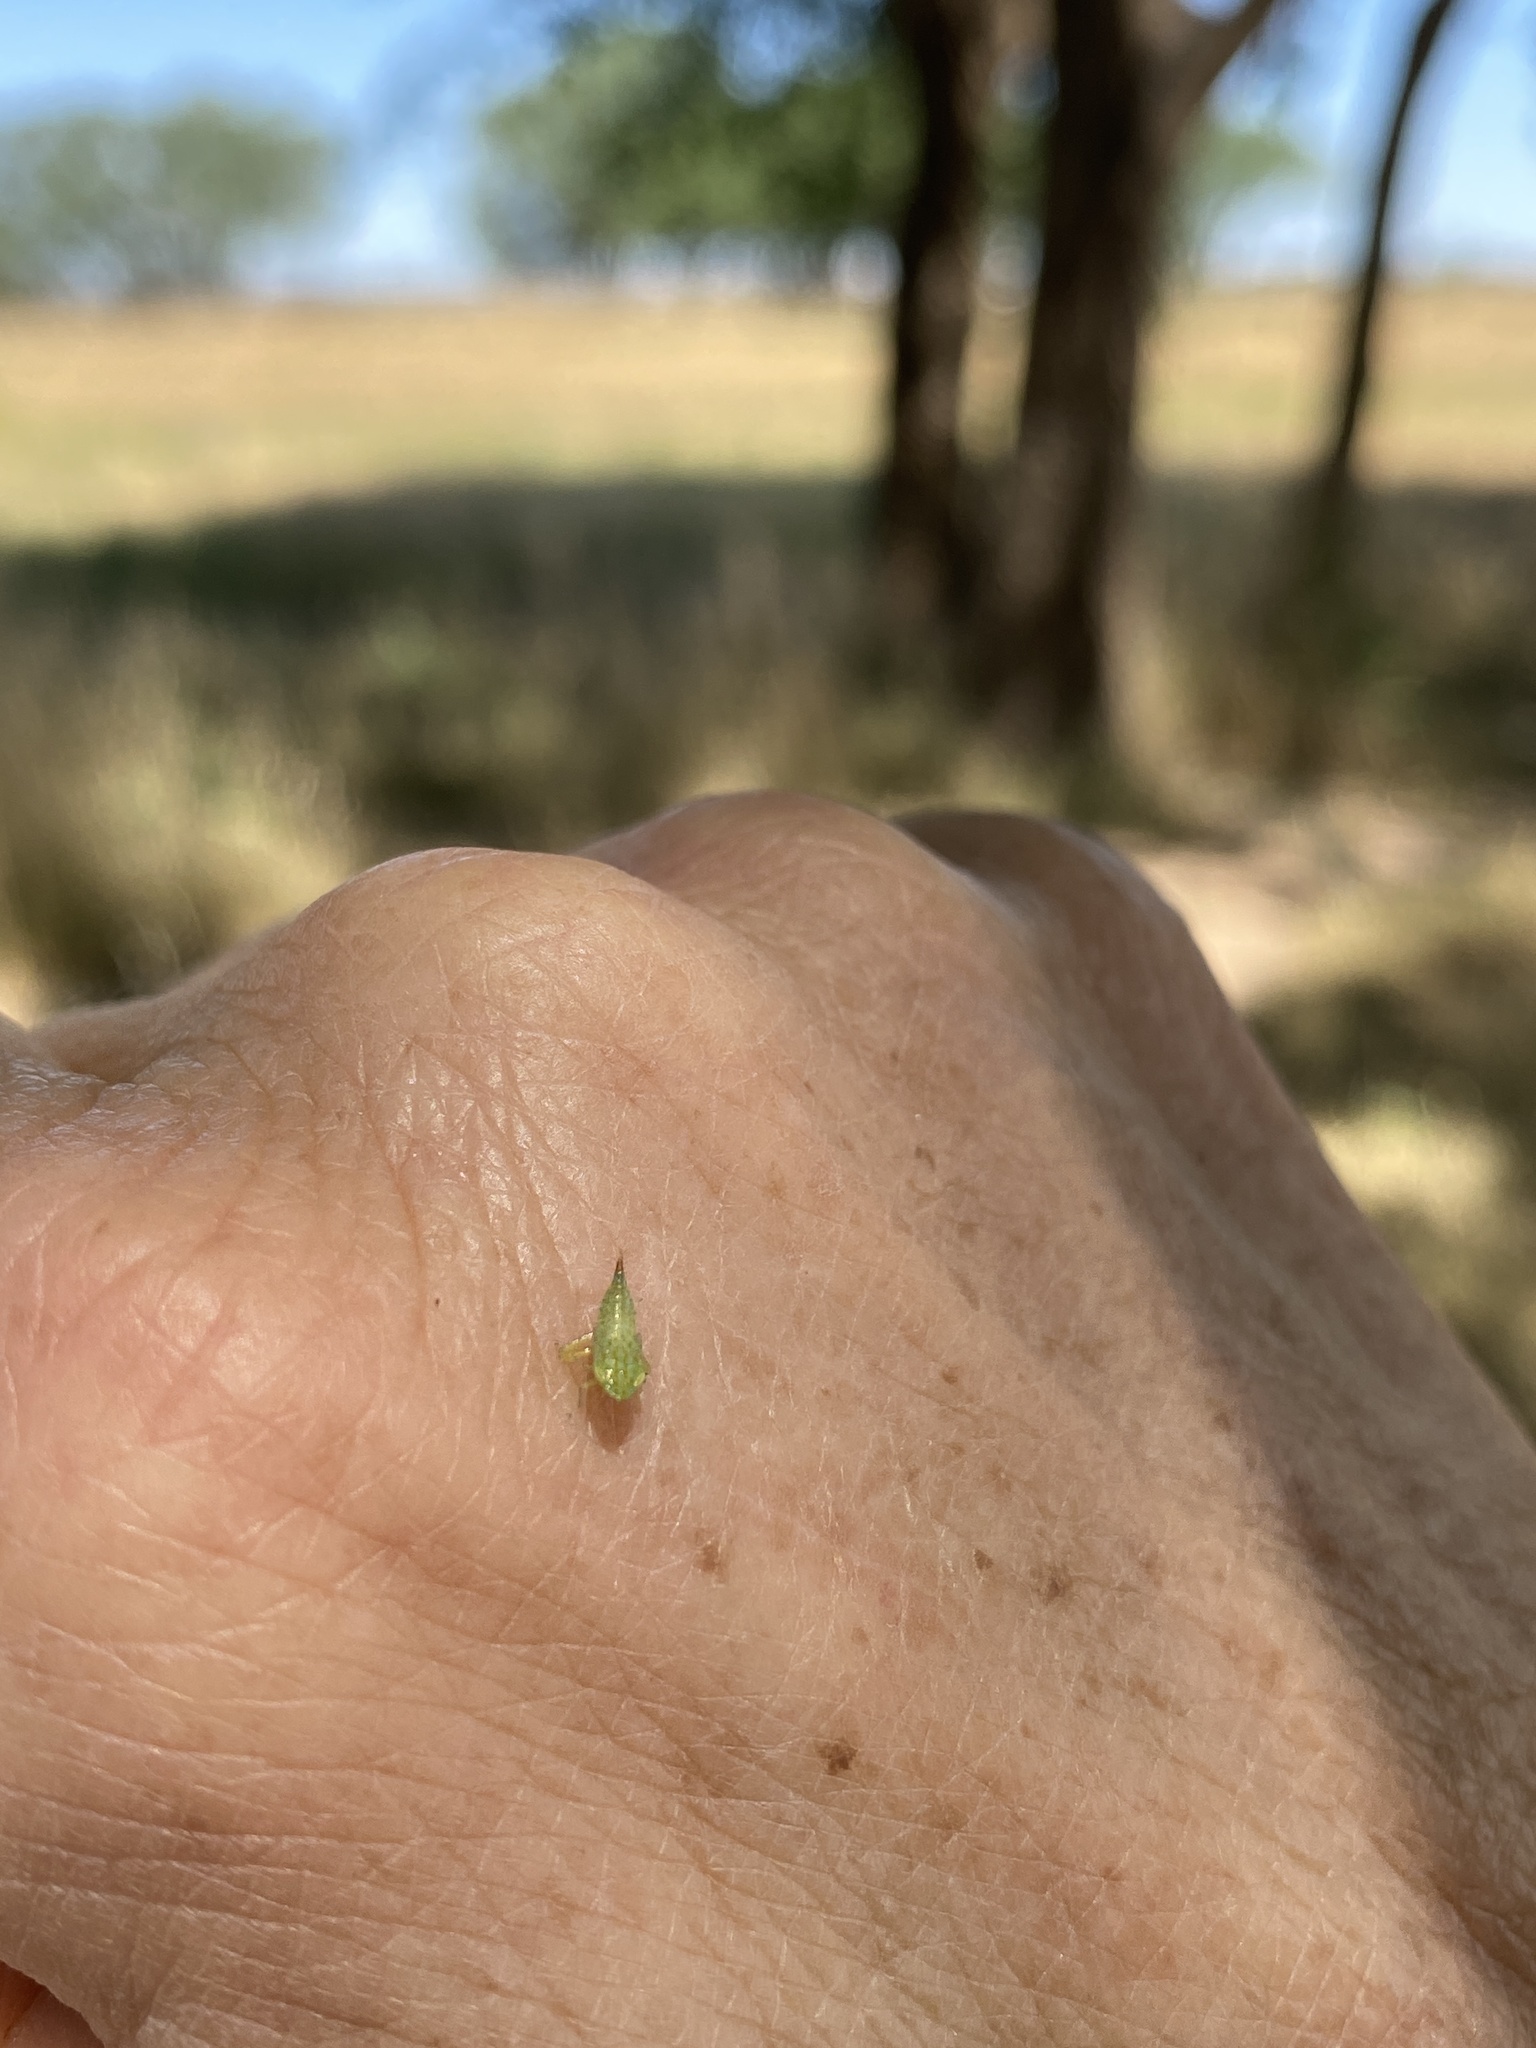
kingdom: Animalia
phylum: Arthropoda
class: Insecta
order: Hemiptera
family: Cicadellidae
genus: Fieberiella
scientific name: Fieberiella florii
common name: Flor’s leafhopper
